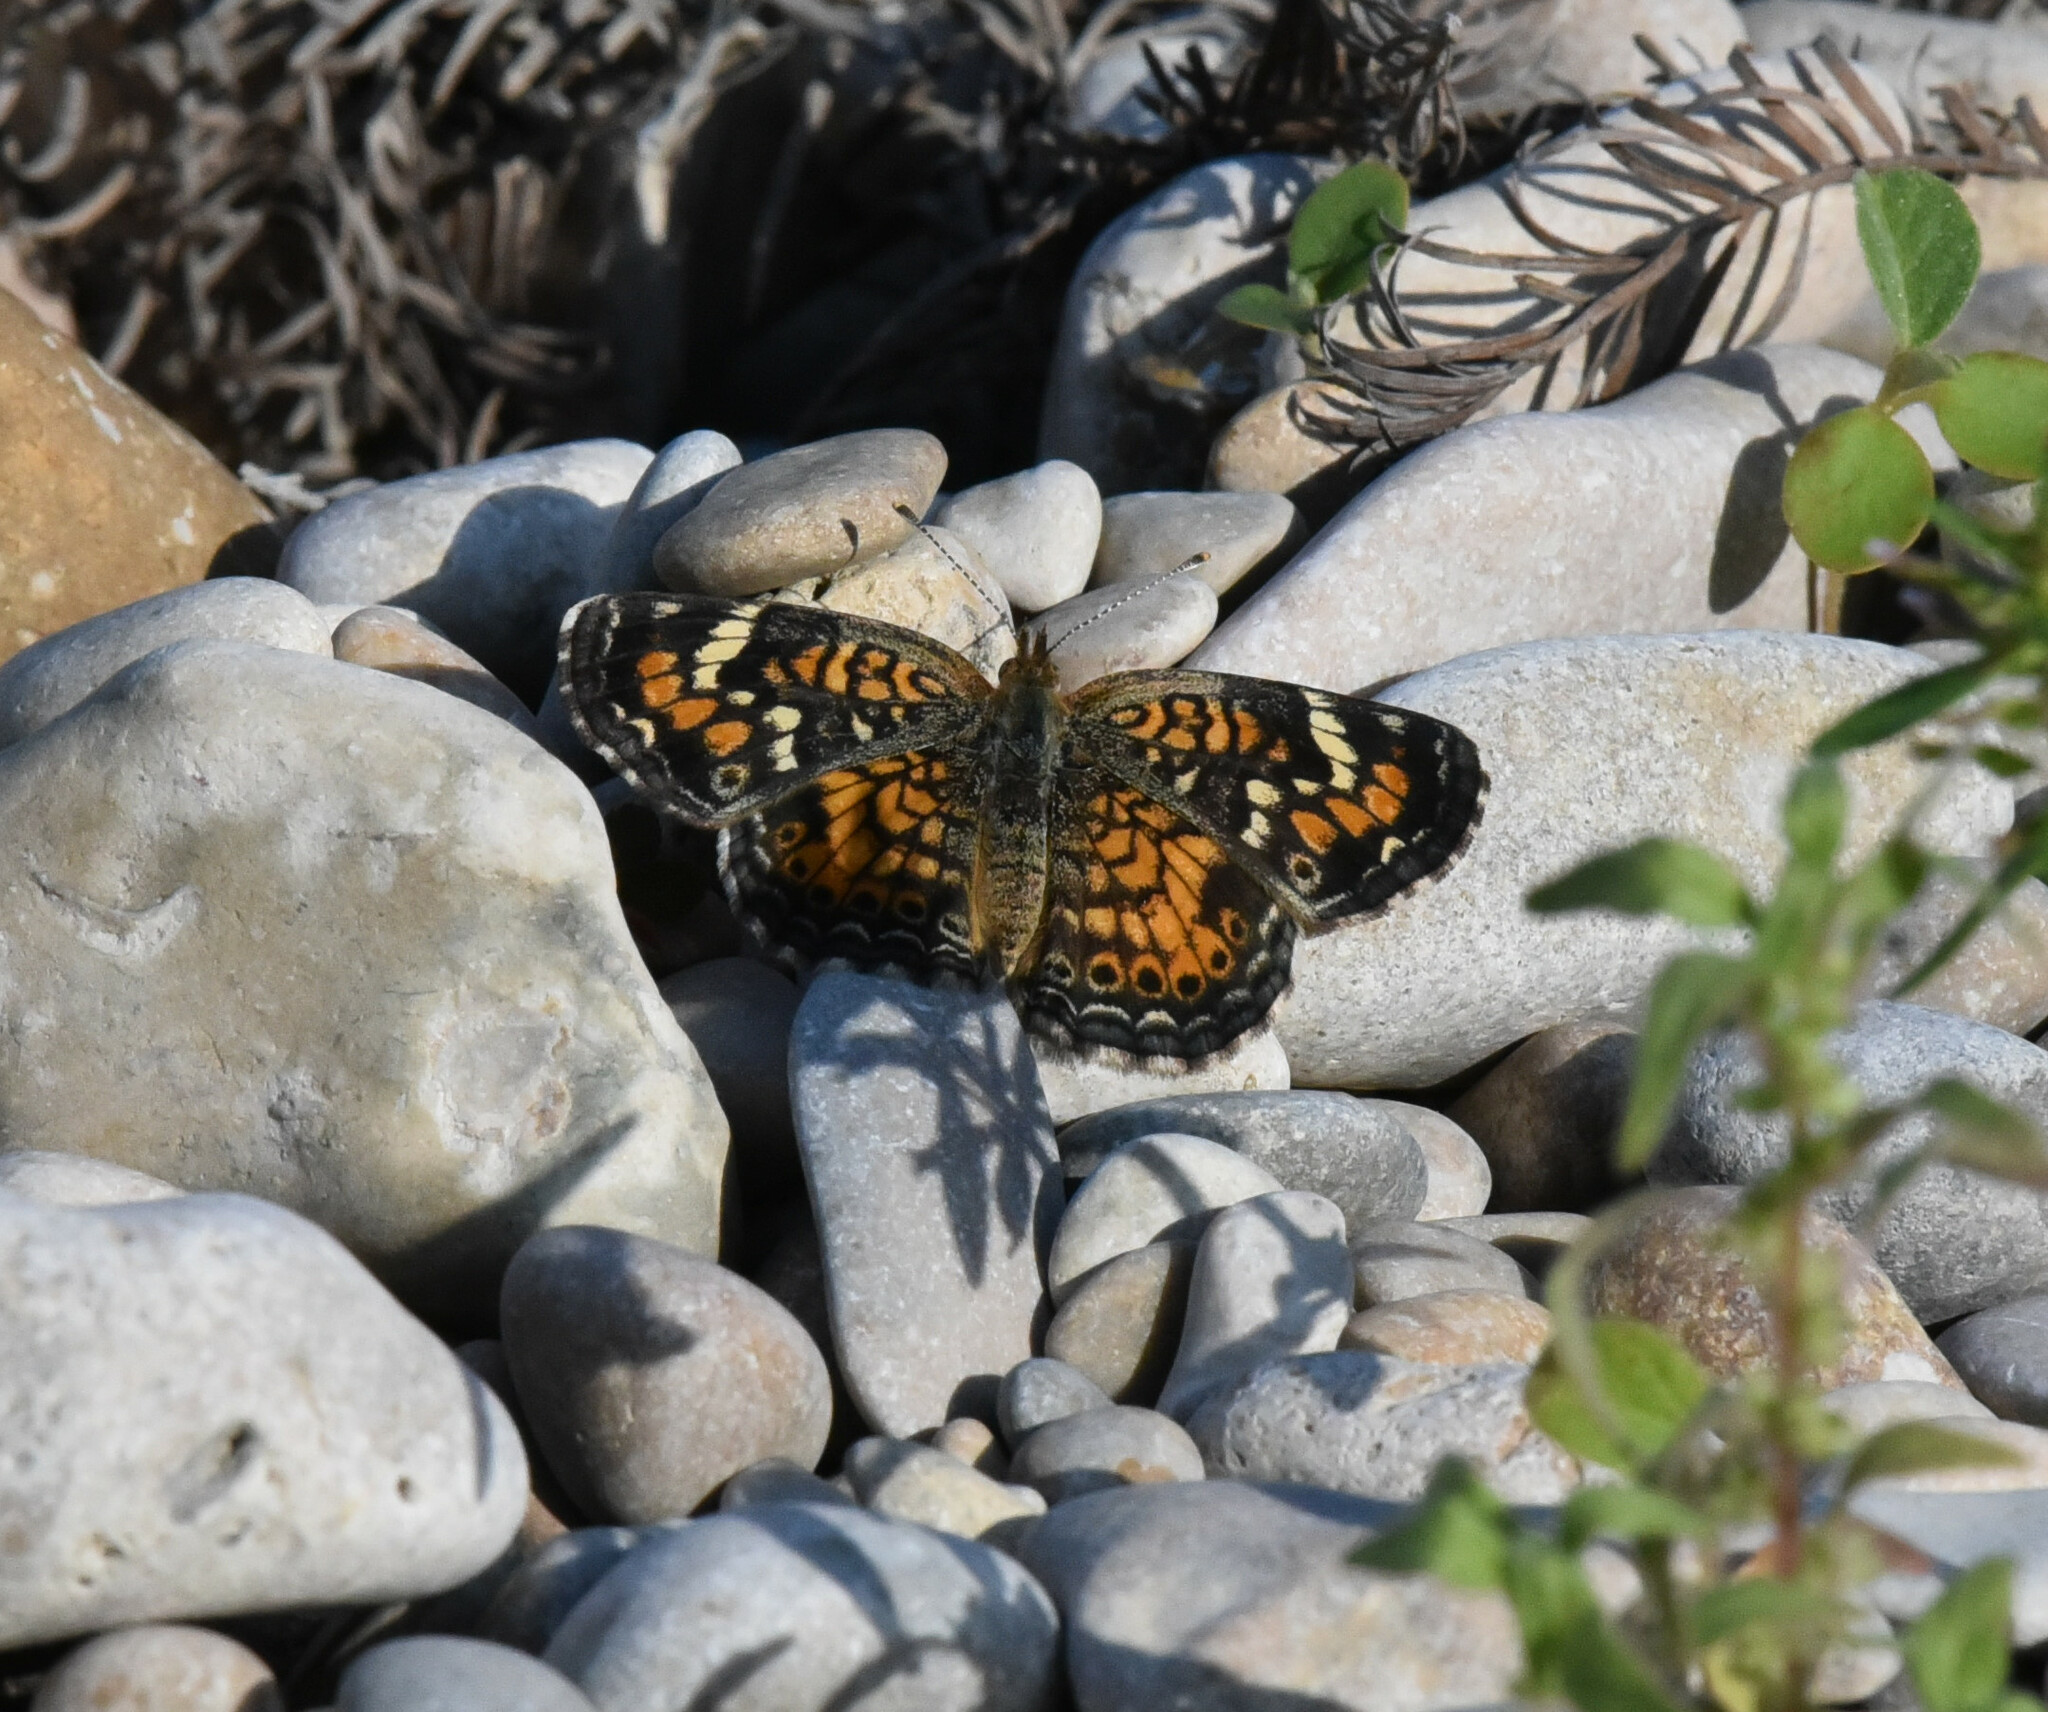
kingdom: Animalia
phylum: Arthropoda
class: Insecta
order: Lepidoptera
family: Nymphalidae
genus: Phyciodes
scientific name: Phyciodes phaon
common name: Phaon crescent
